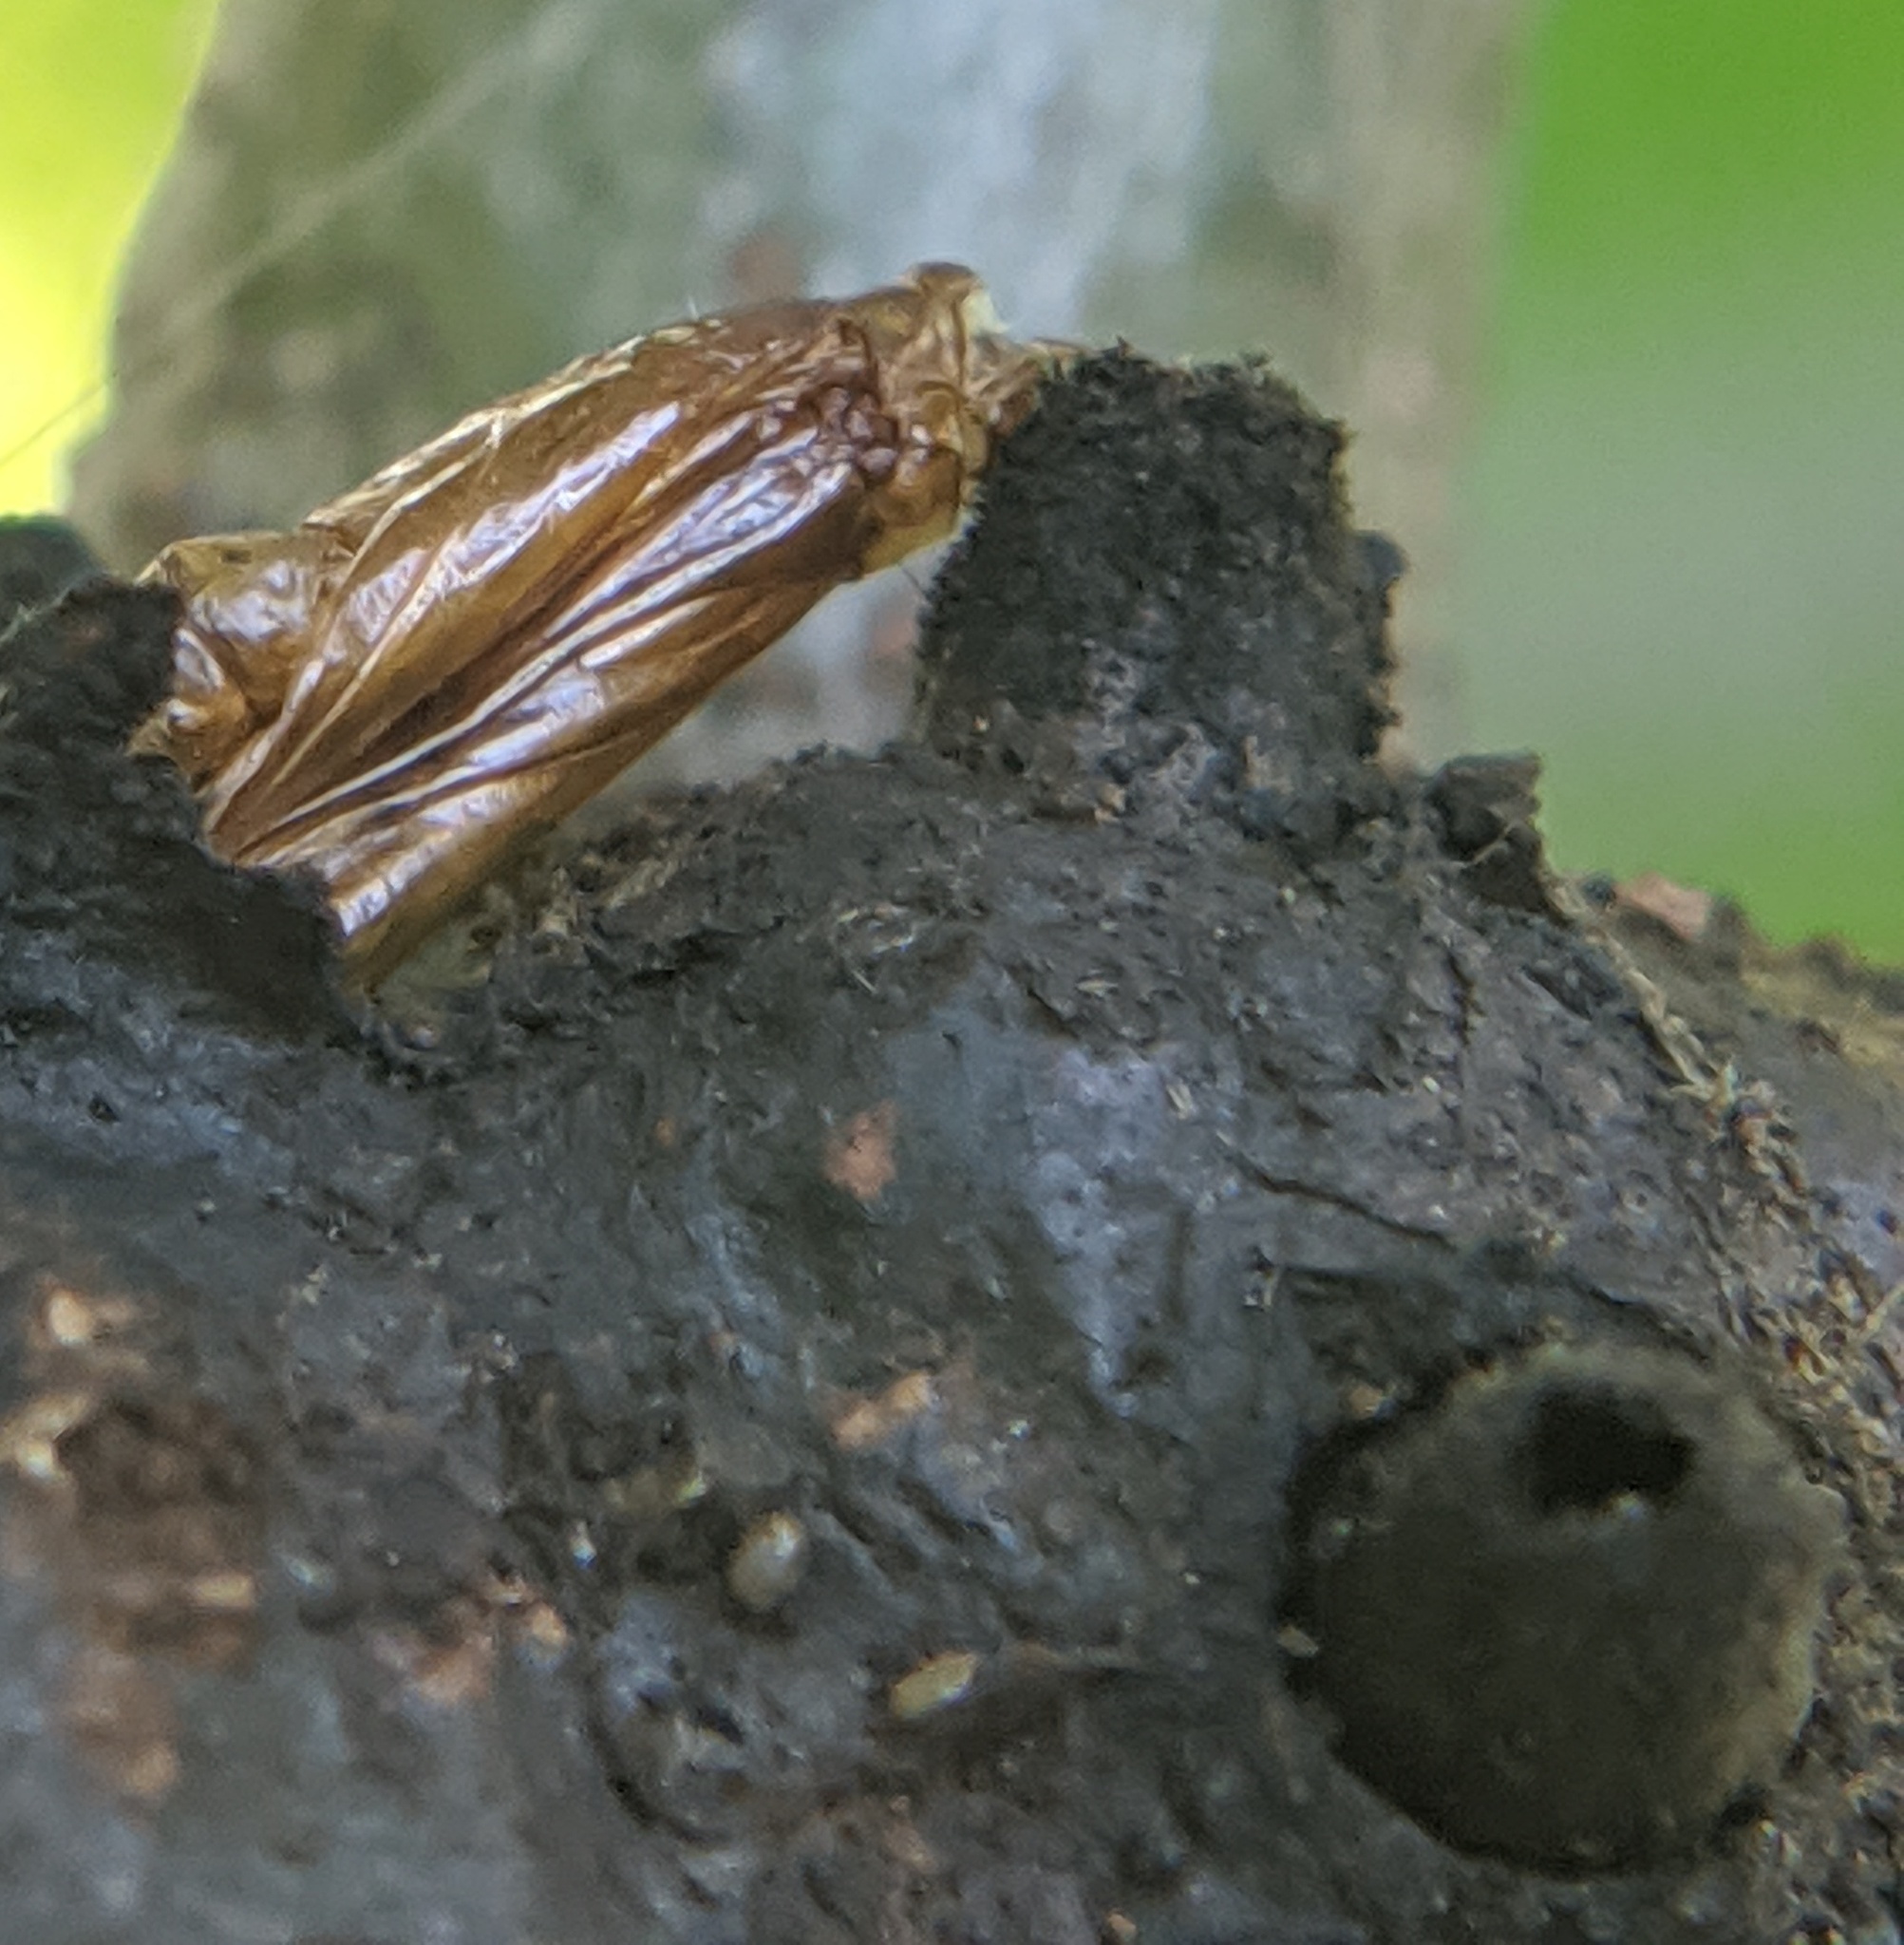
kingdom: Animalia
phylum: Arthropoda
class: Insecta
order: Hymenoptera
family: Cynipidae
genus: Callirhytis
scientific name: Callirhytis
